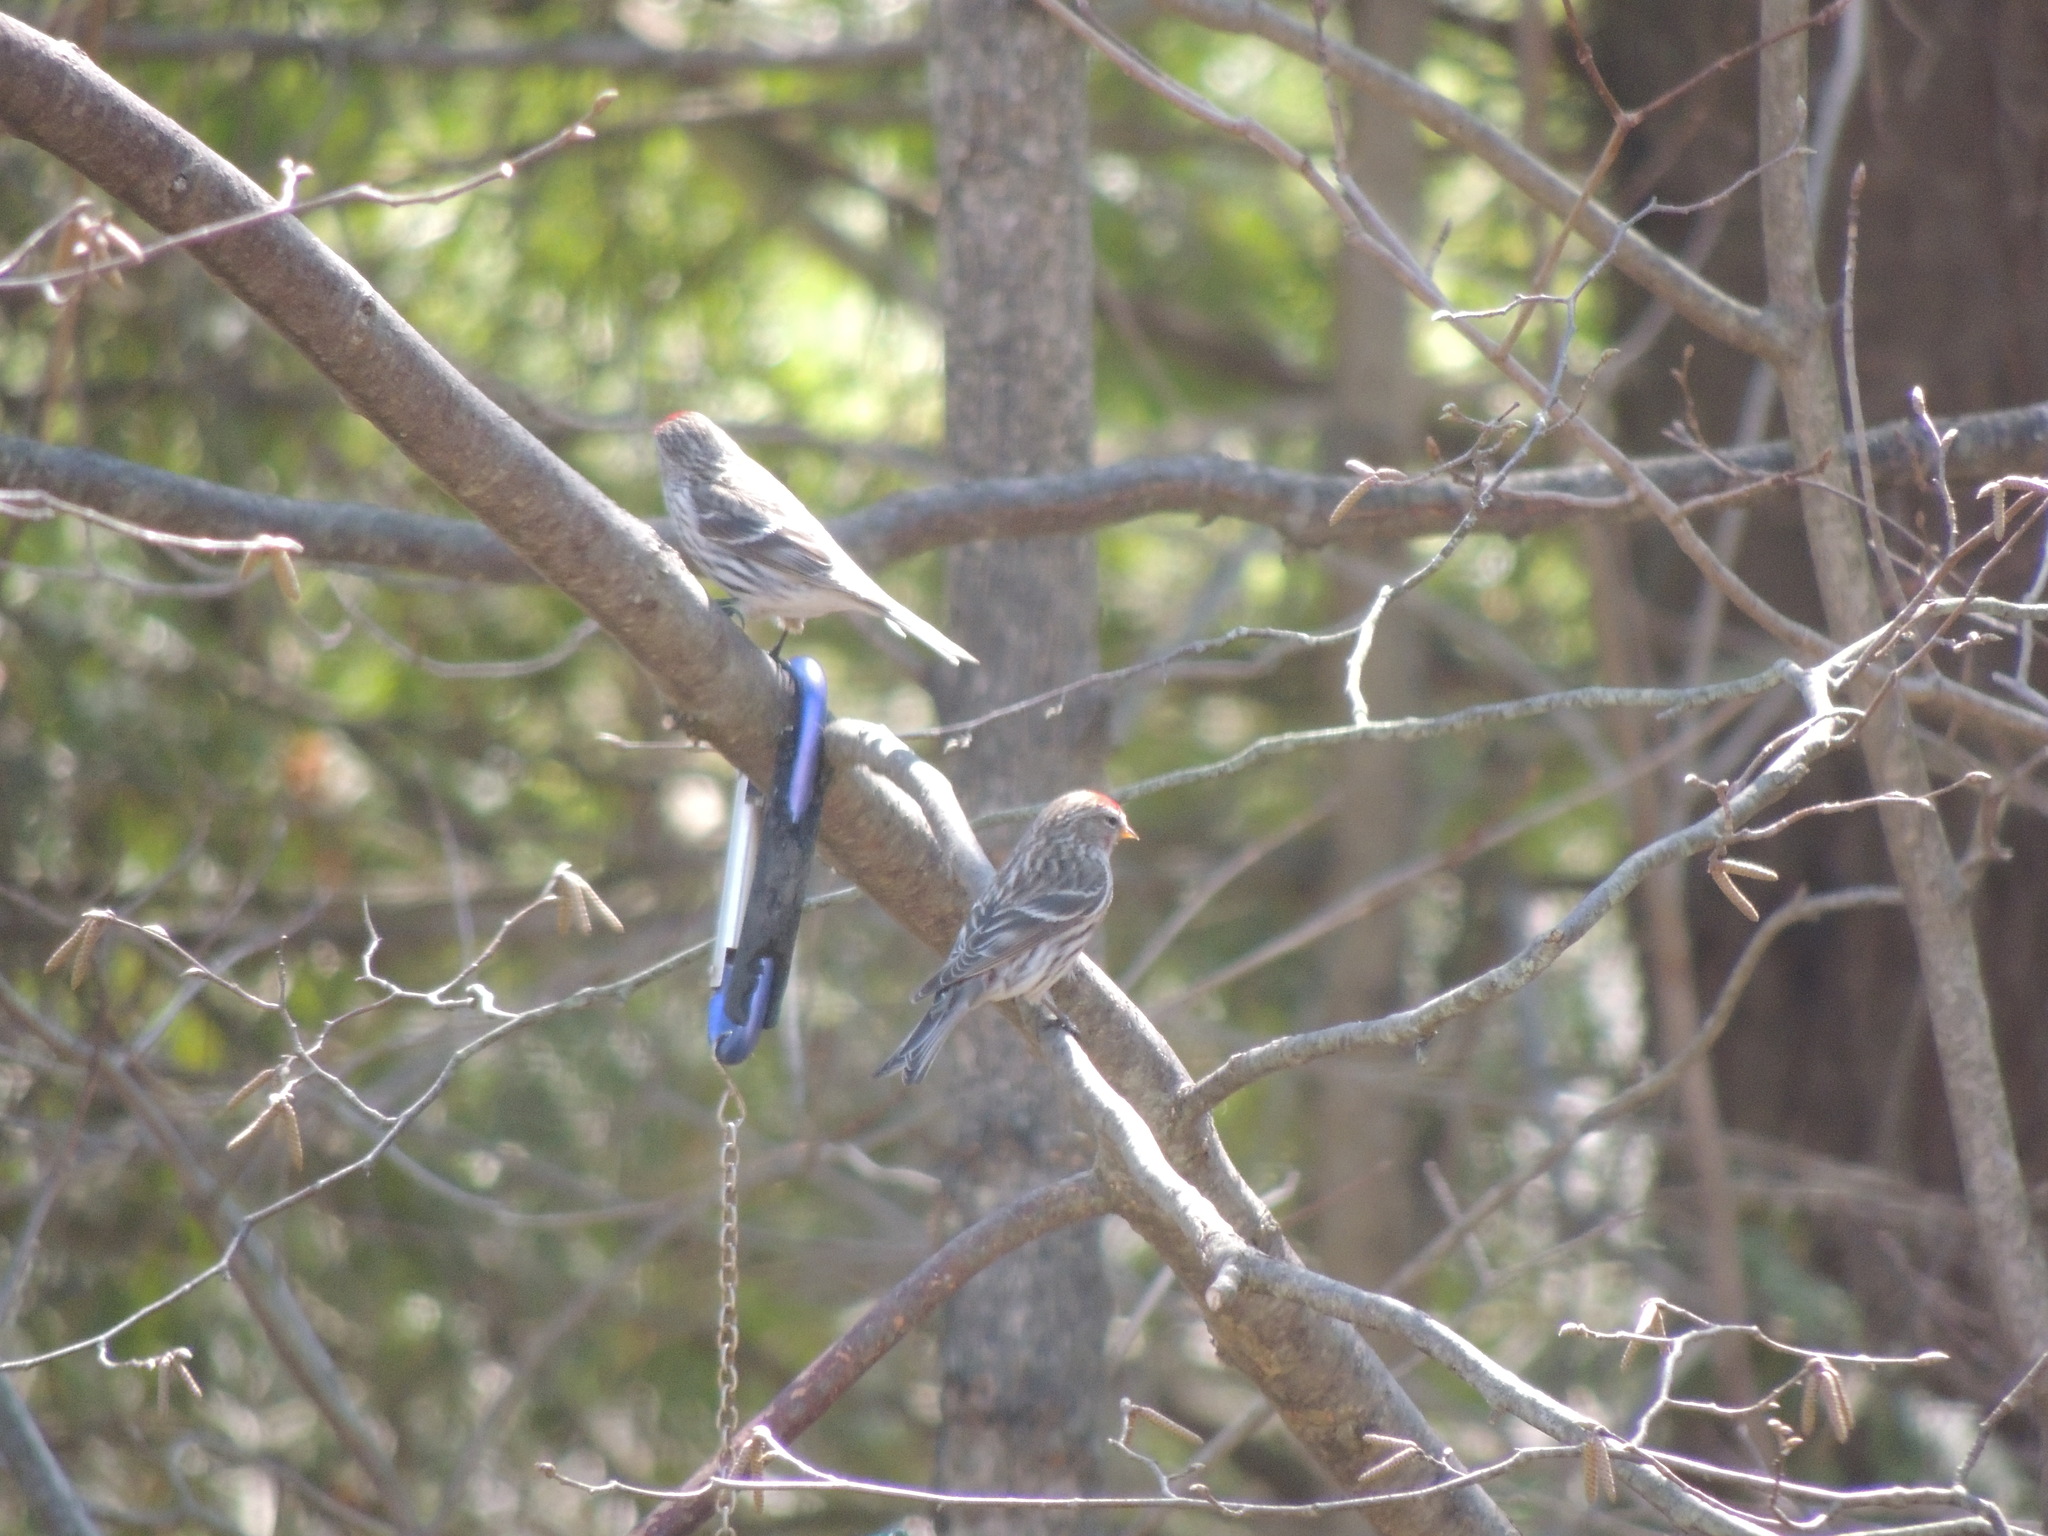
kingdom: Animalia
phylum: Chordata
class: Aves
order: Passeriformes
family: Fringillidae
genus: Acanthis
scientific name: Acanthis flammea
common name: Common redpoll
